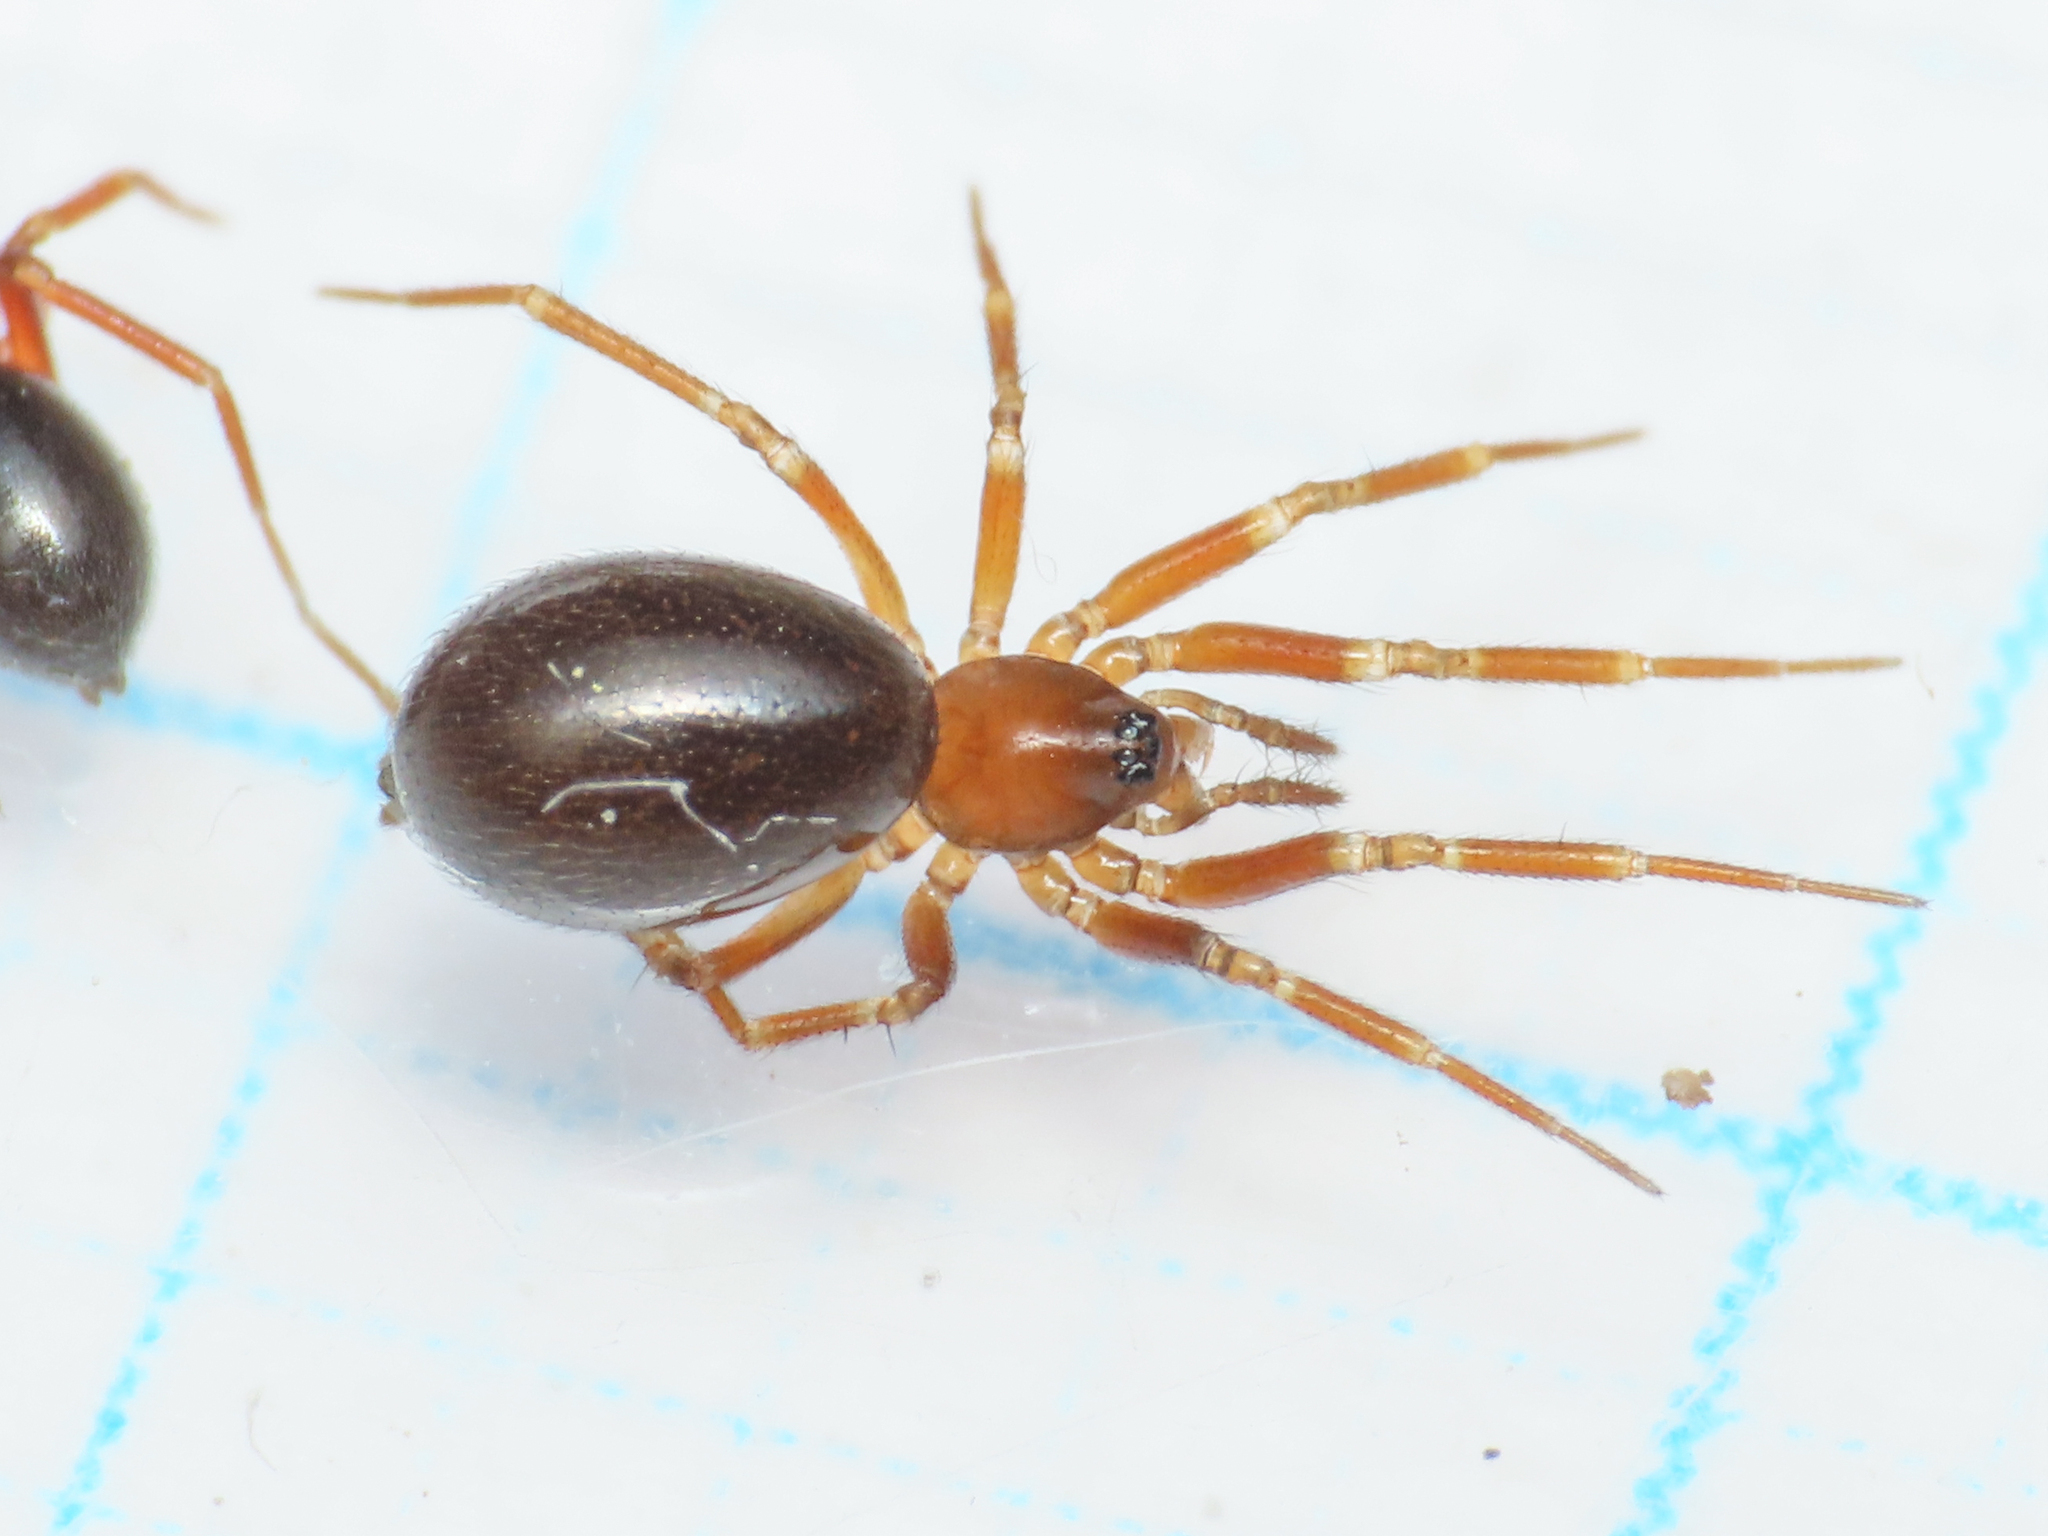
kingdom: Animalia
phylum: Arthropoda
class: Arachnida
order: Araneae
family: Linyphiidae
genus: Microneta
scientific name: Microneta viaria
